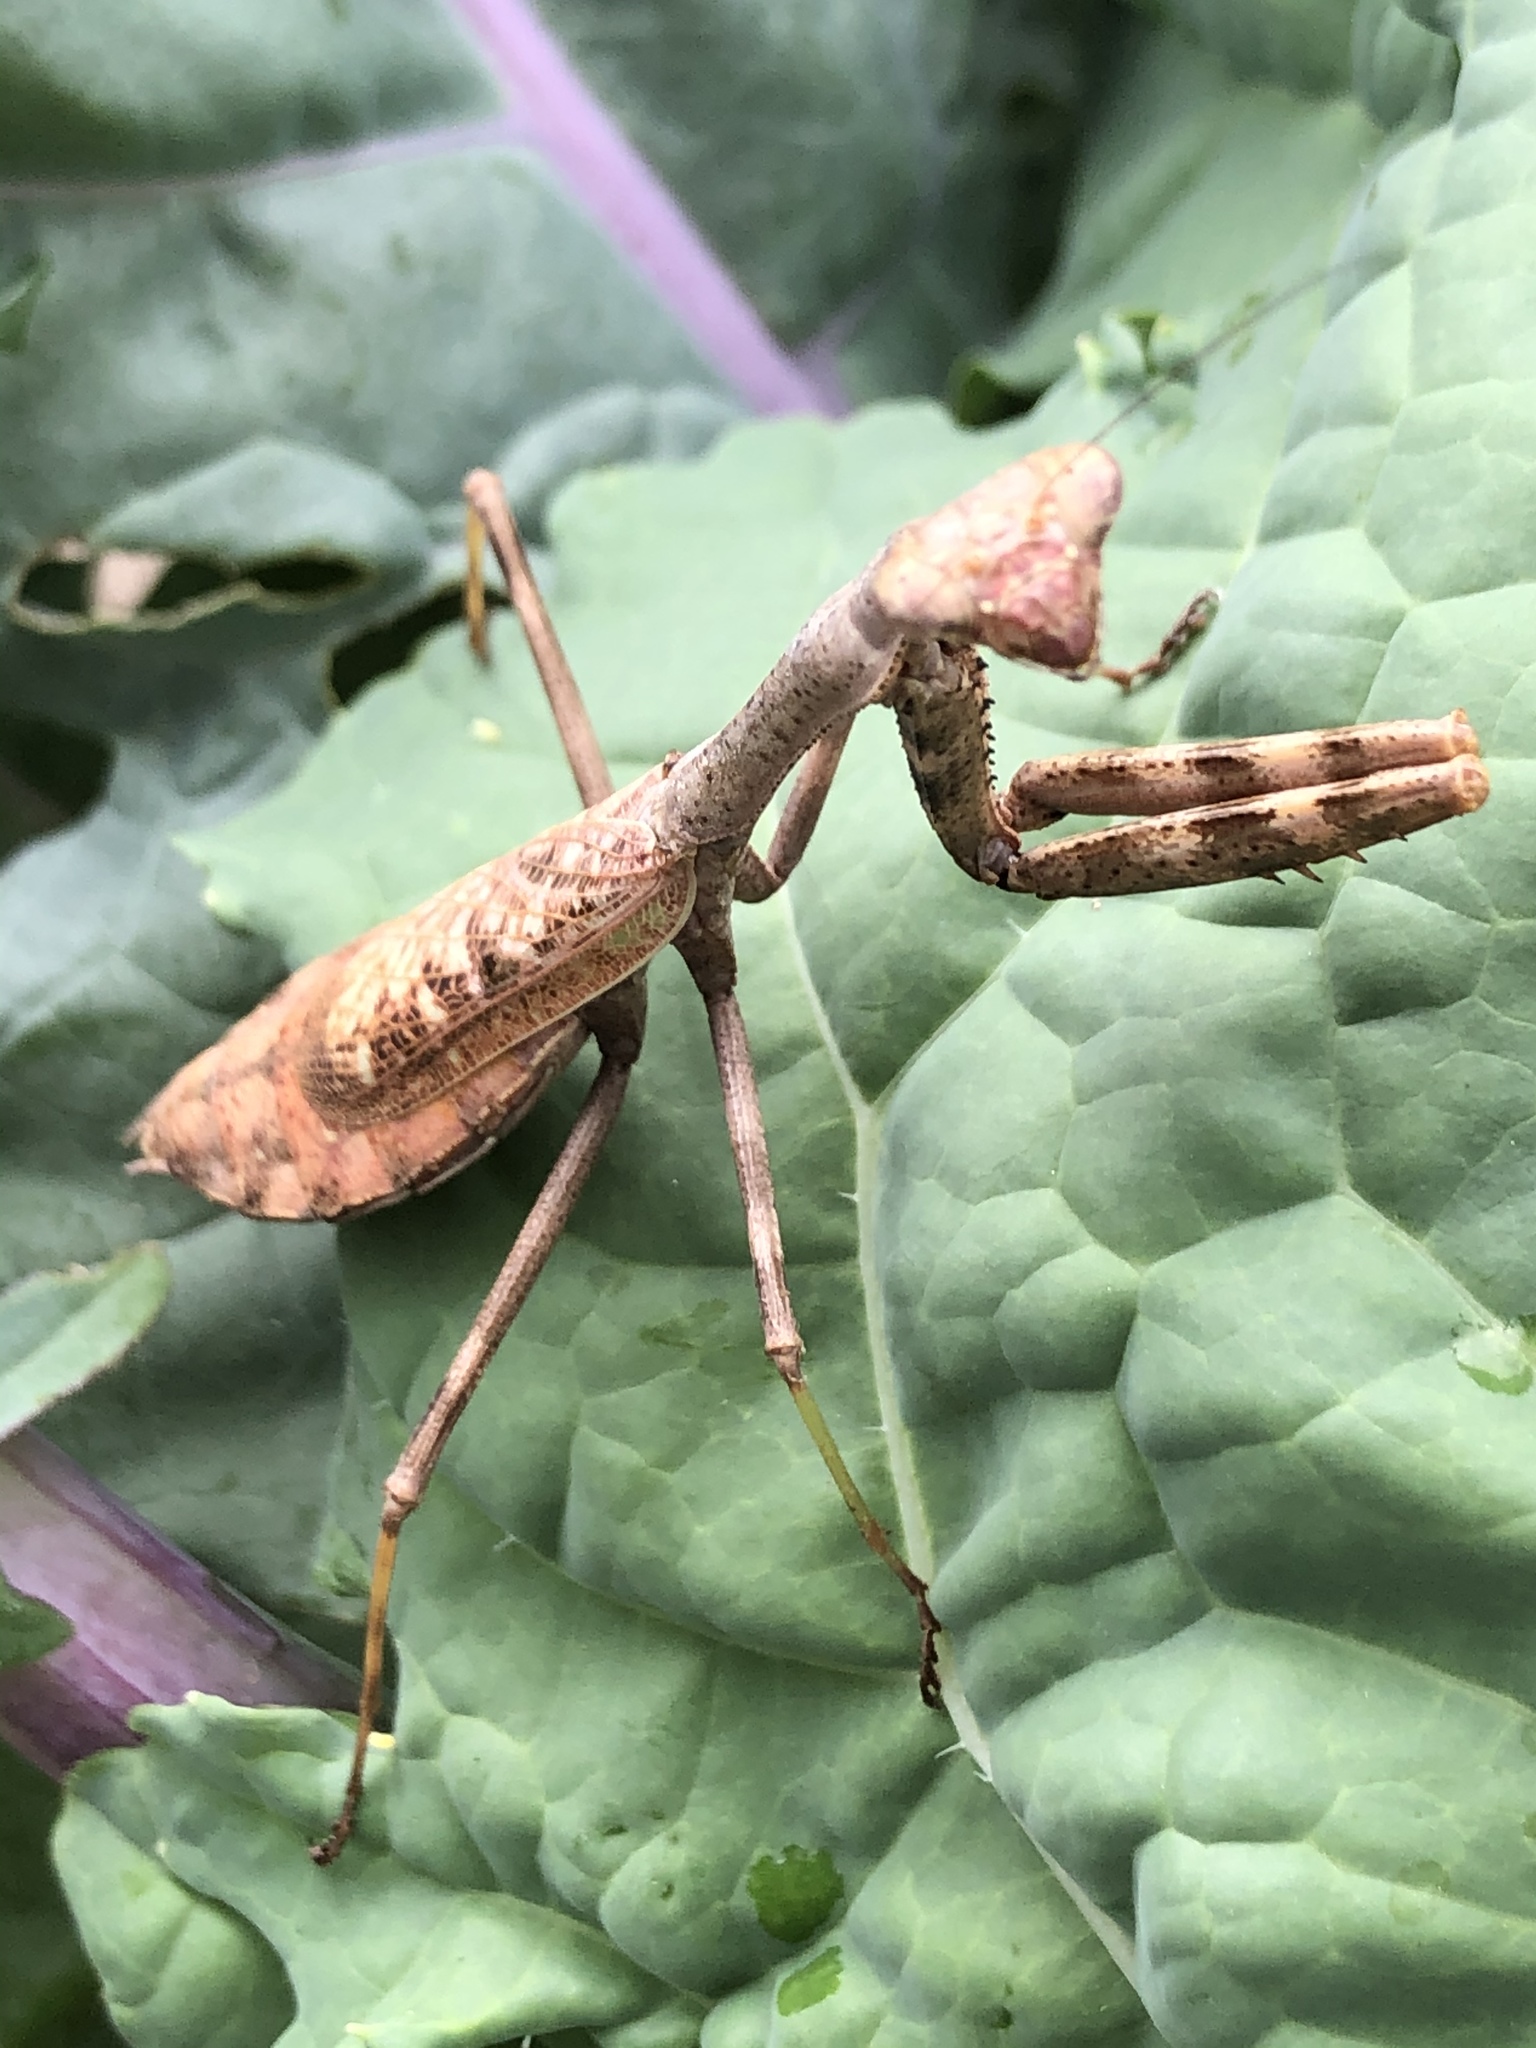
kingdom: Animalia
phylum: Arthropoda
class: Insecta
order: Mantodea
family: Mantidae
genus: Stagmomantis
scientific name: Stagmomantis carolina
